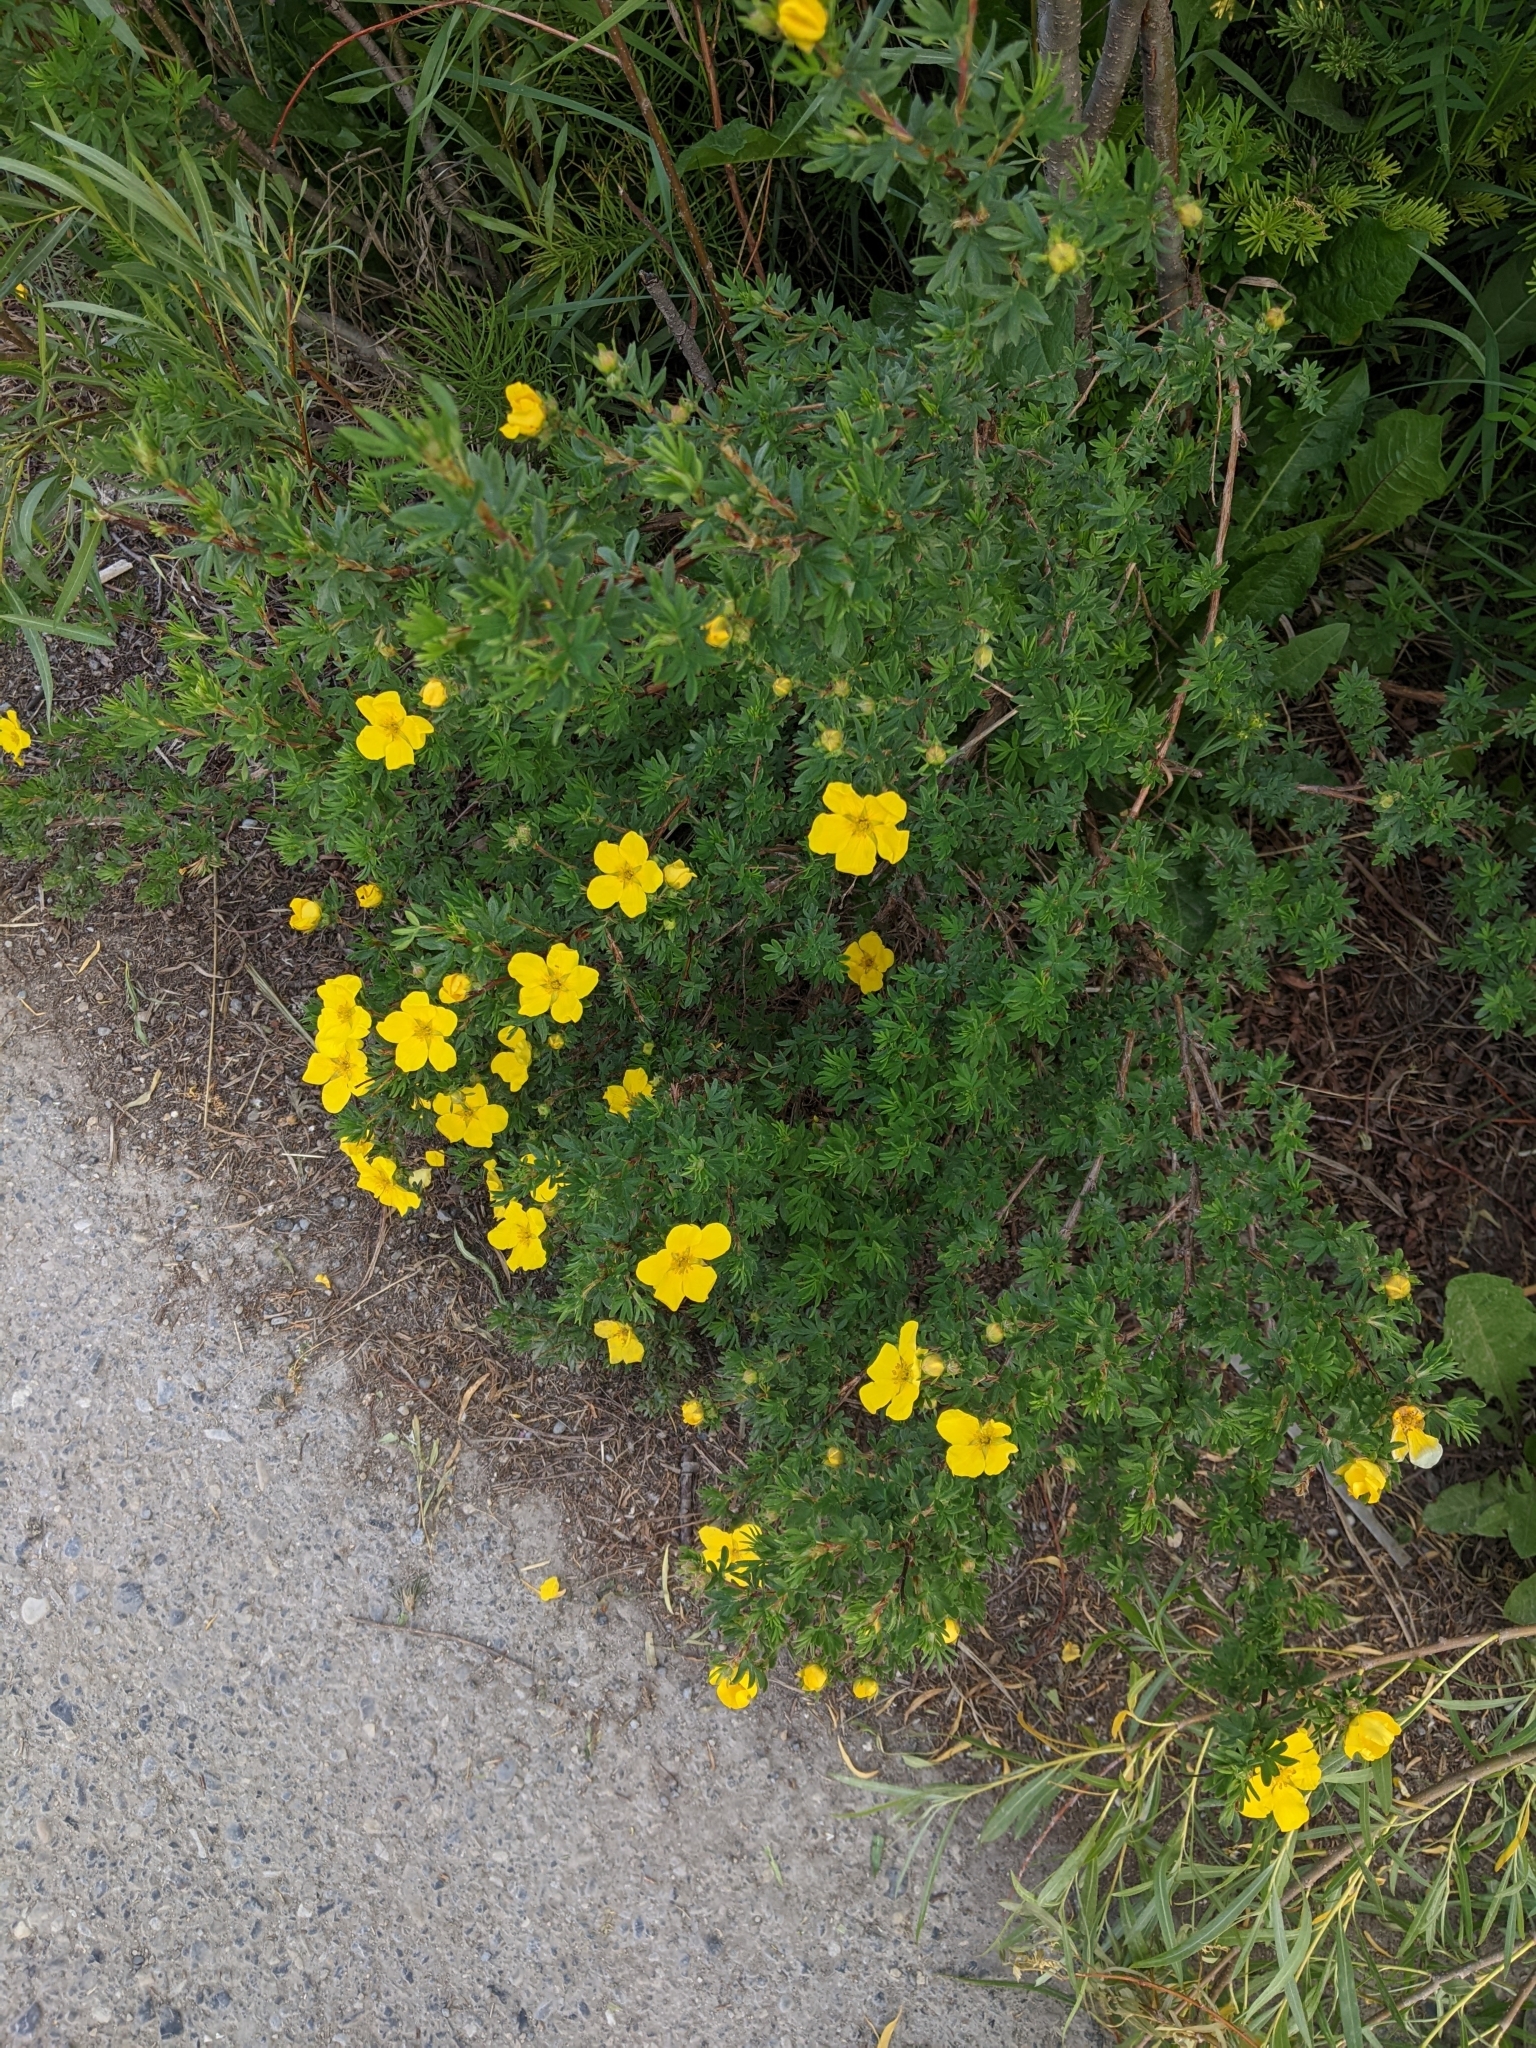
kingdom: Plantae
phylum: Tracheophyta
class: Magnoliopsida
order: Rosales
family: Rosaceae
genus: Dasiphora
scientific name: Dasiphora fruticosa
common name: Shrubby cinquefoil
